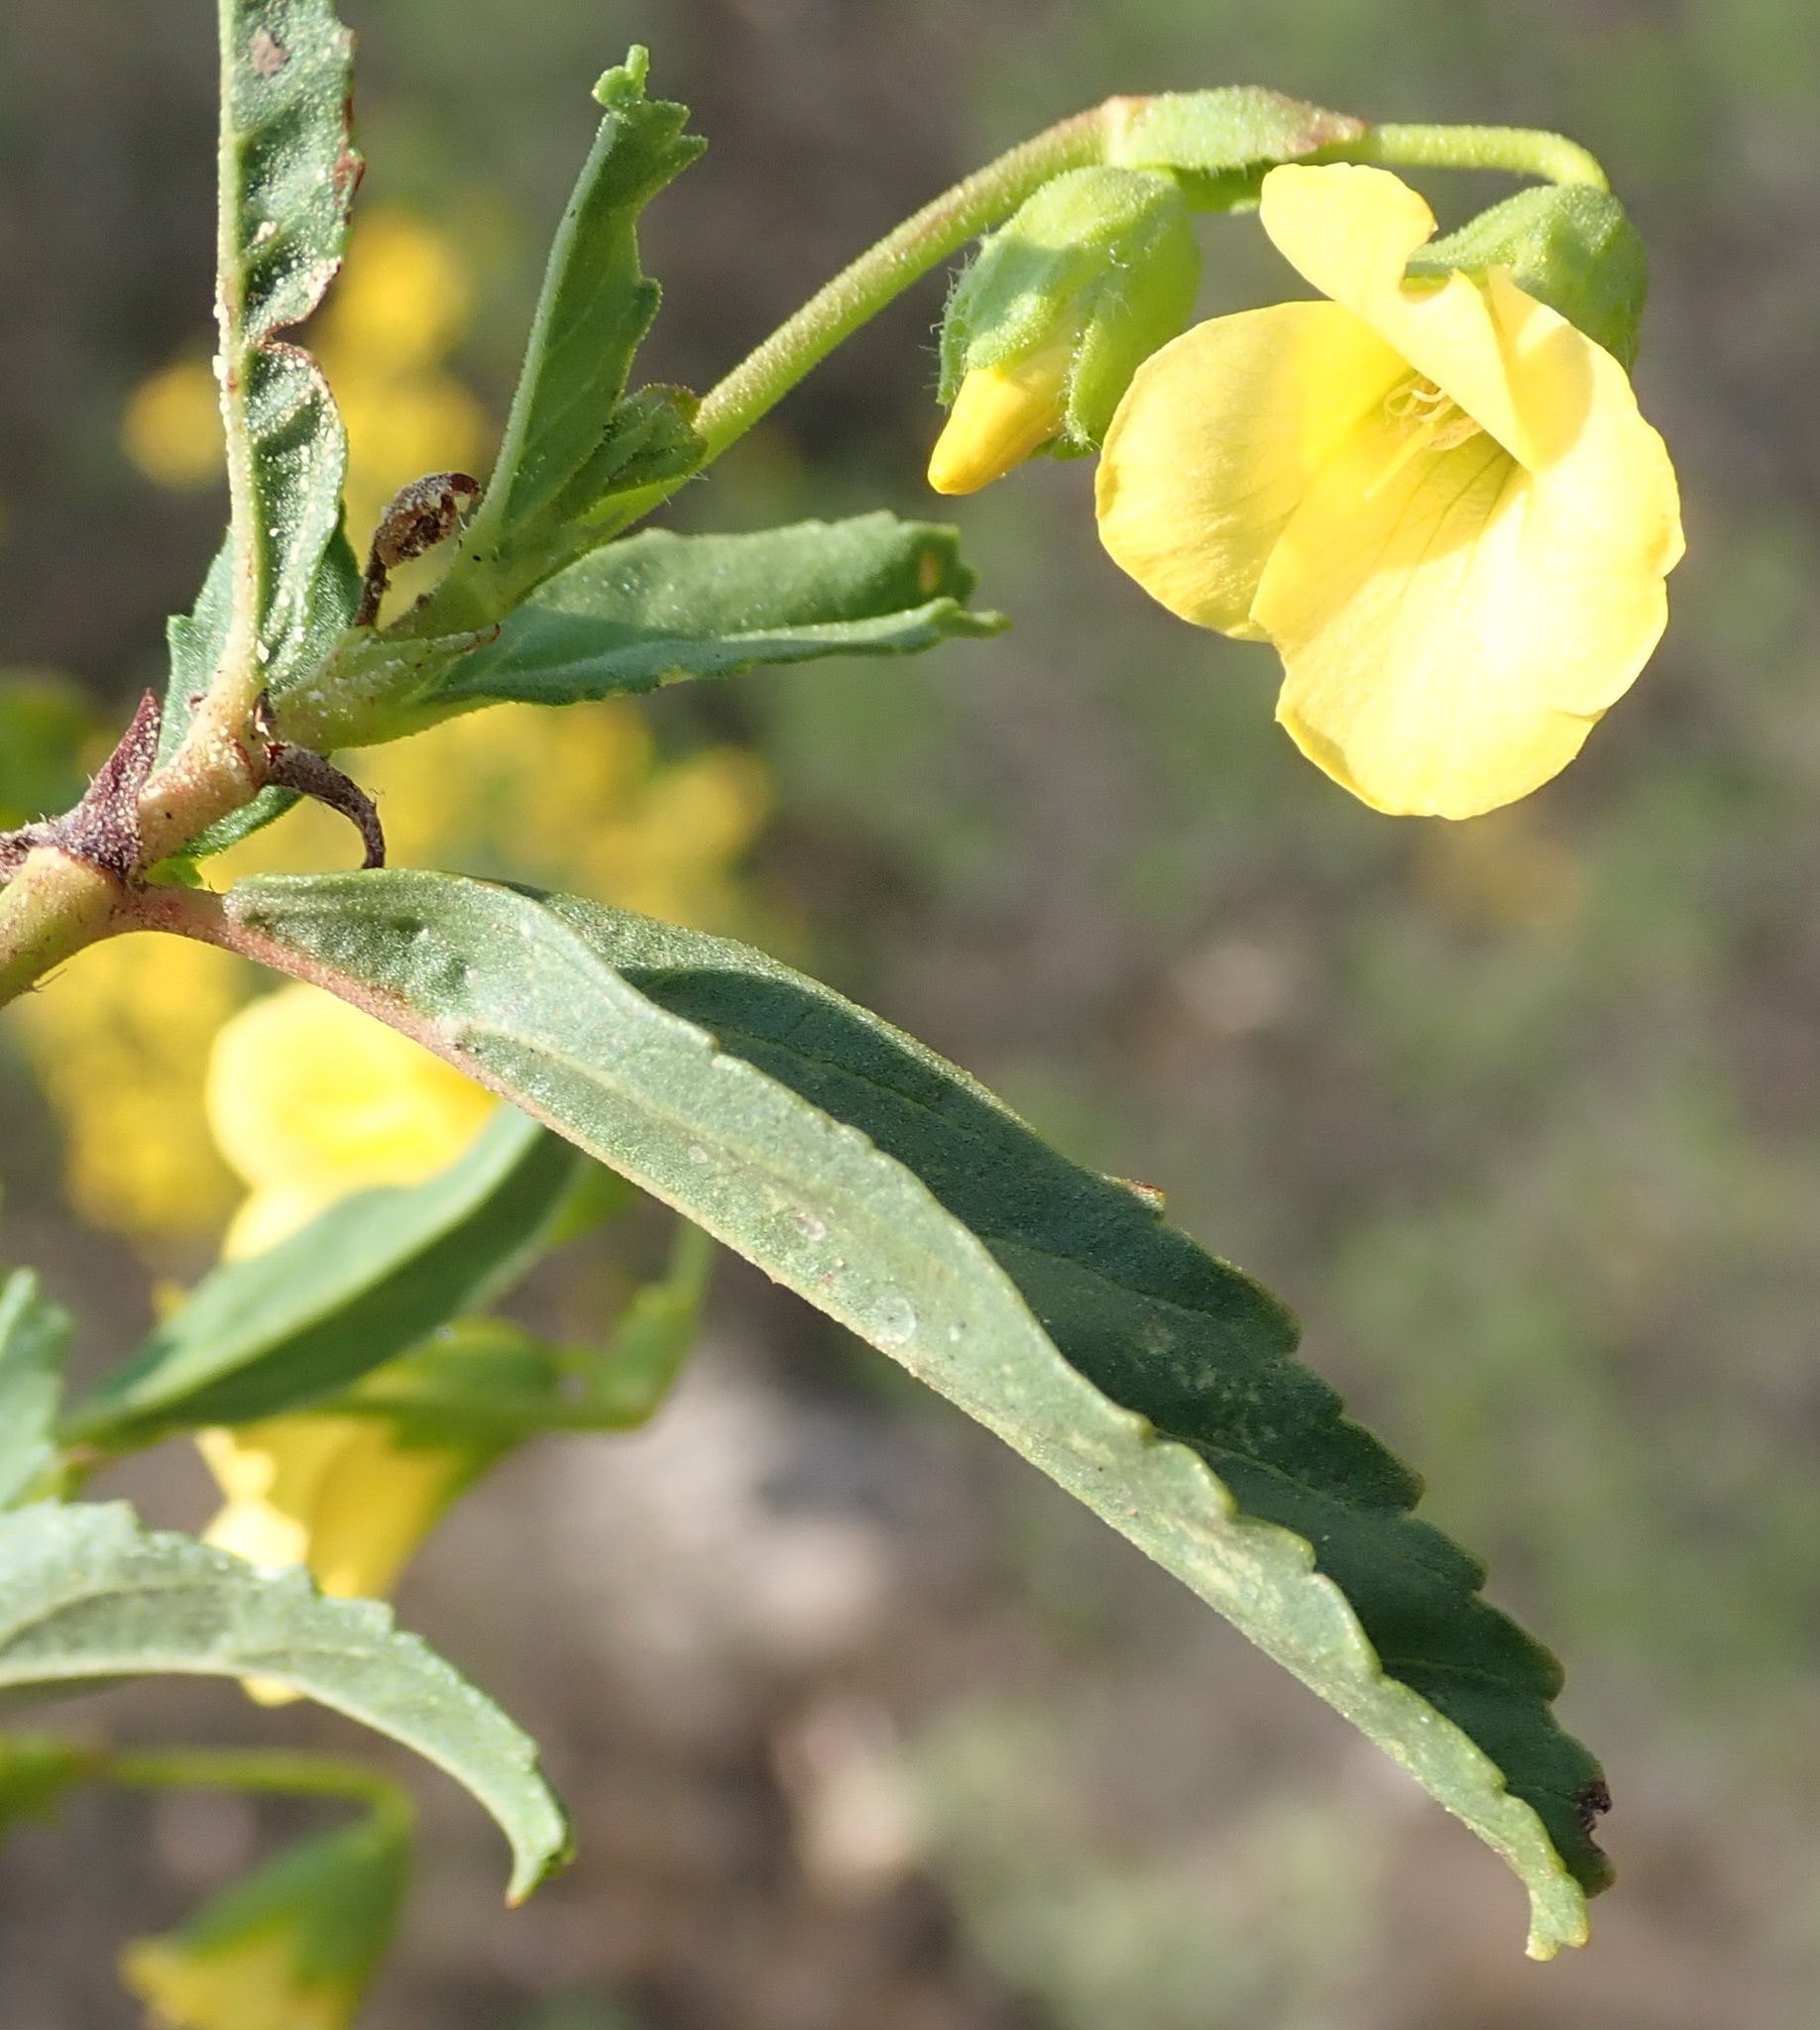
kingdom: Plantae
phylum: Tracheophyta
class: Magnoliopsida
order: Malvales
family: Malvaceae
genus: Hermannia
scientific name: Hermannia saccifera
